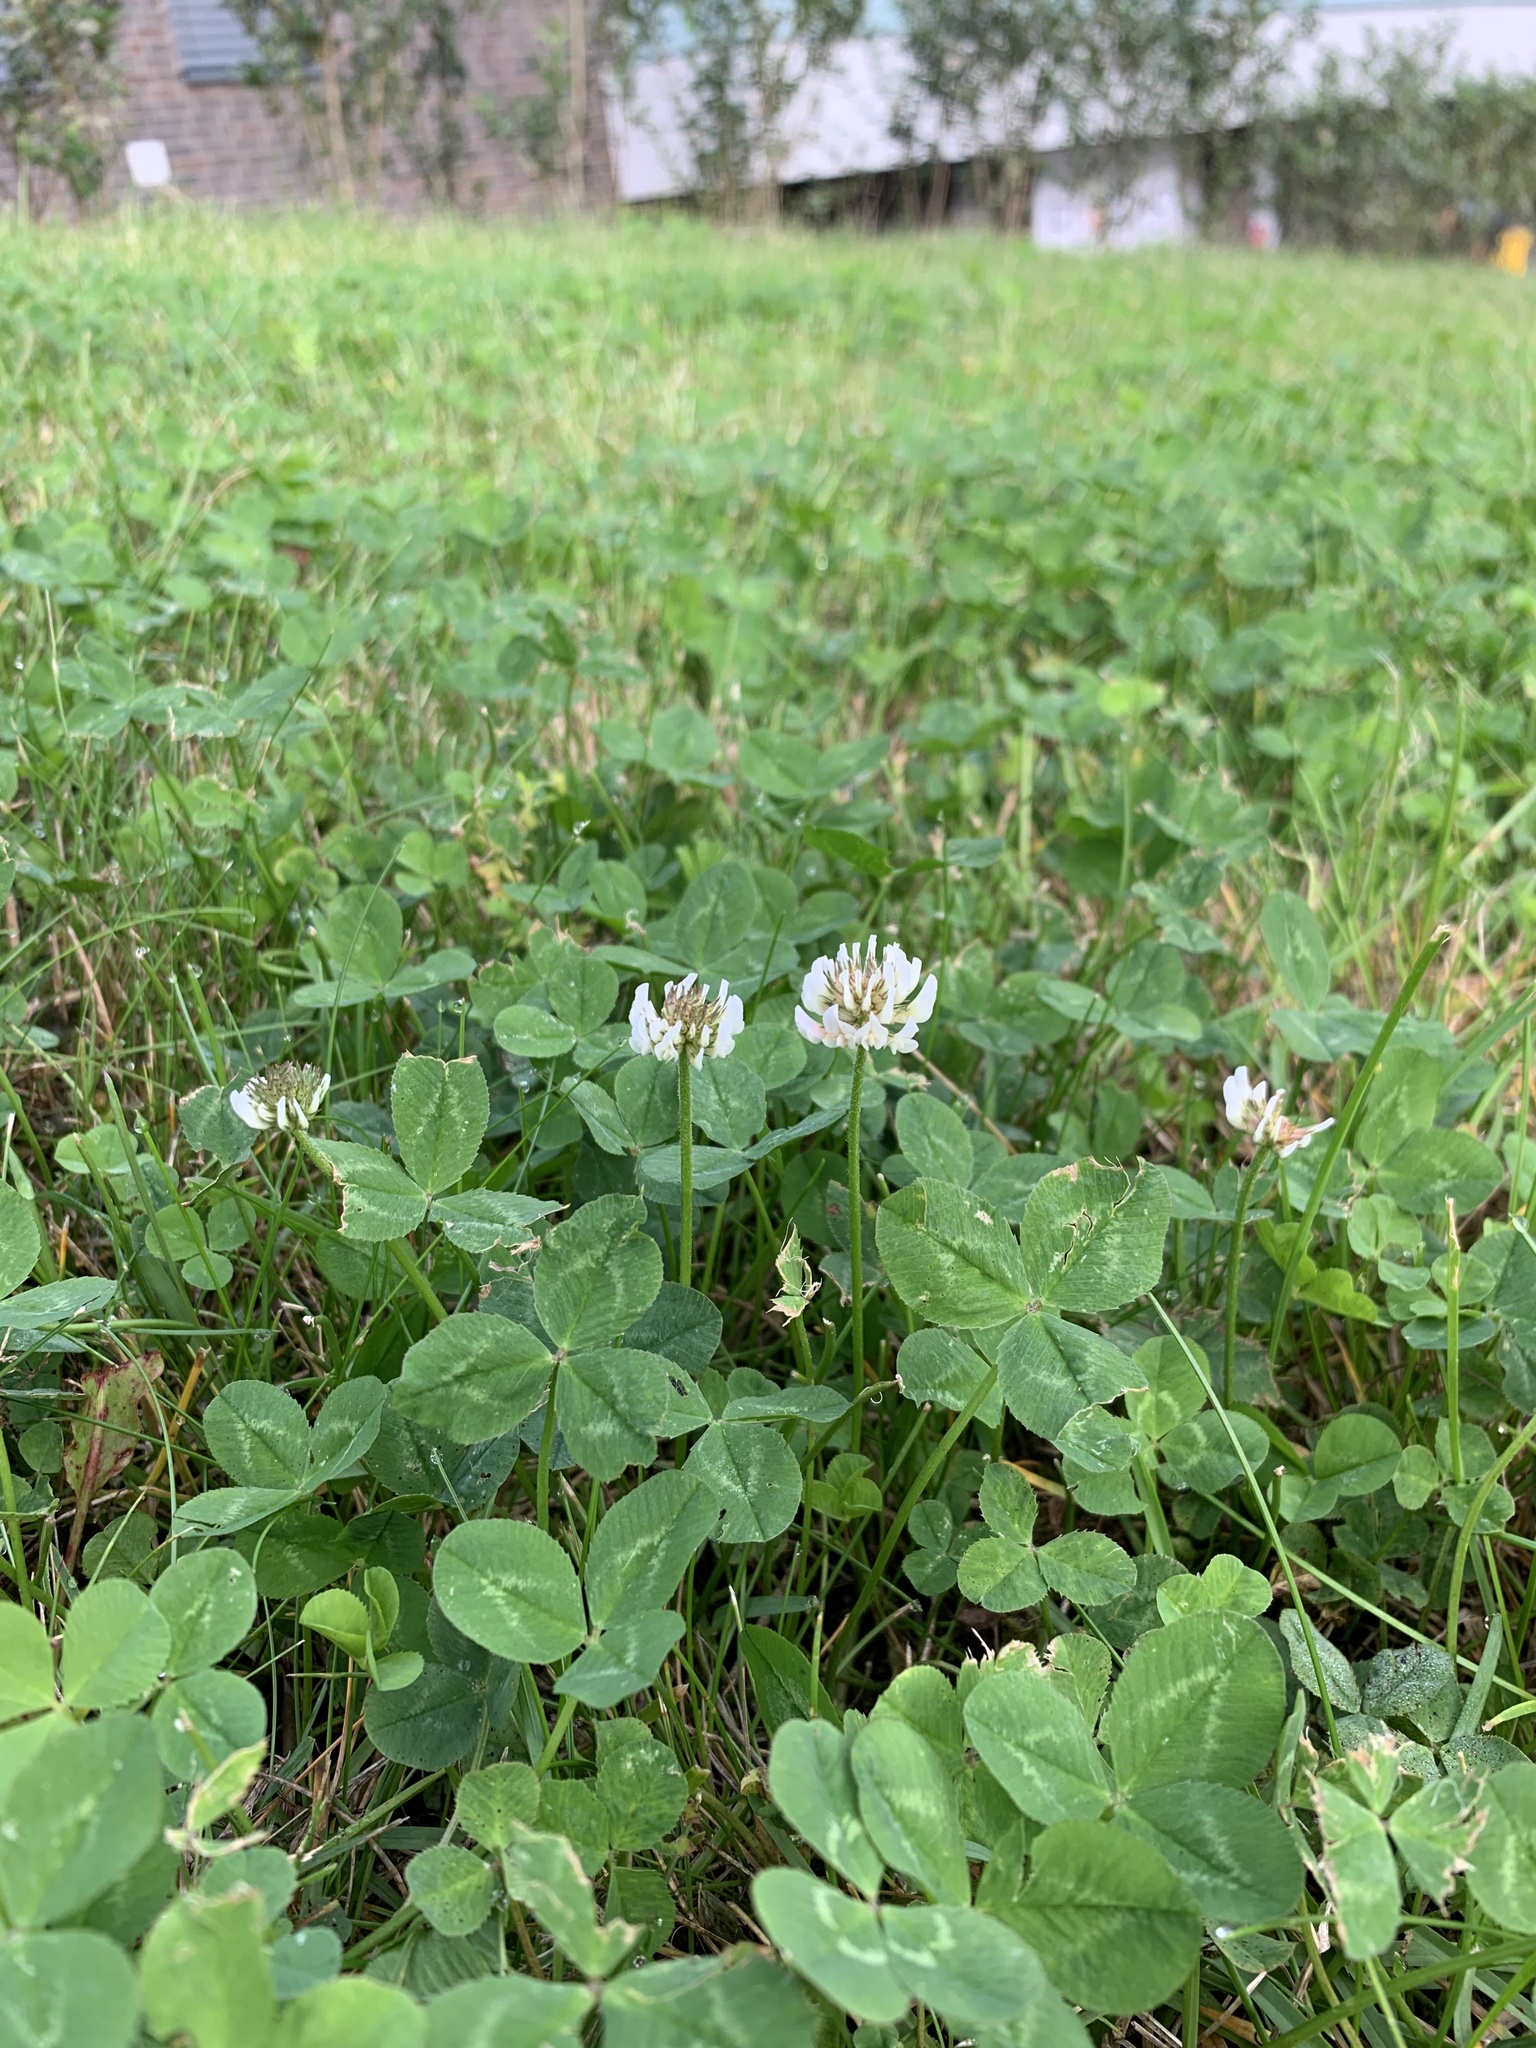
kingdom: Plantae
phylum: Tracheophyta
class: Magnoliopsida
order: Fabales
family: Fabaceae
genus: Trifolium
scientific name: Trifolium repens
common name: White clover
